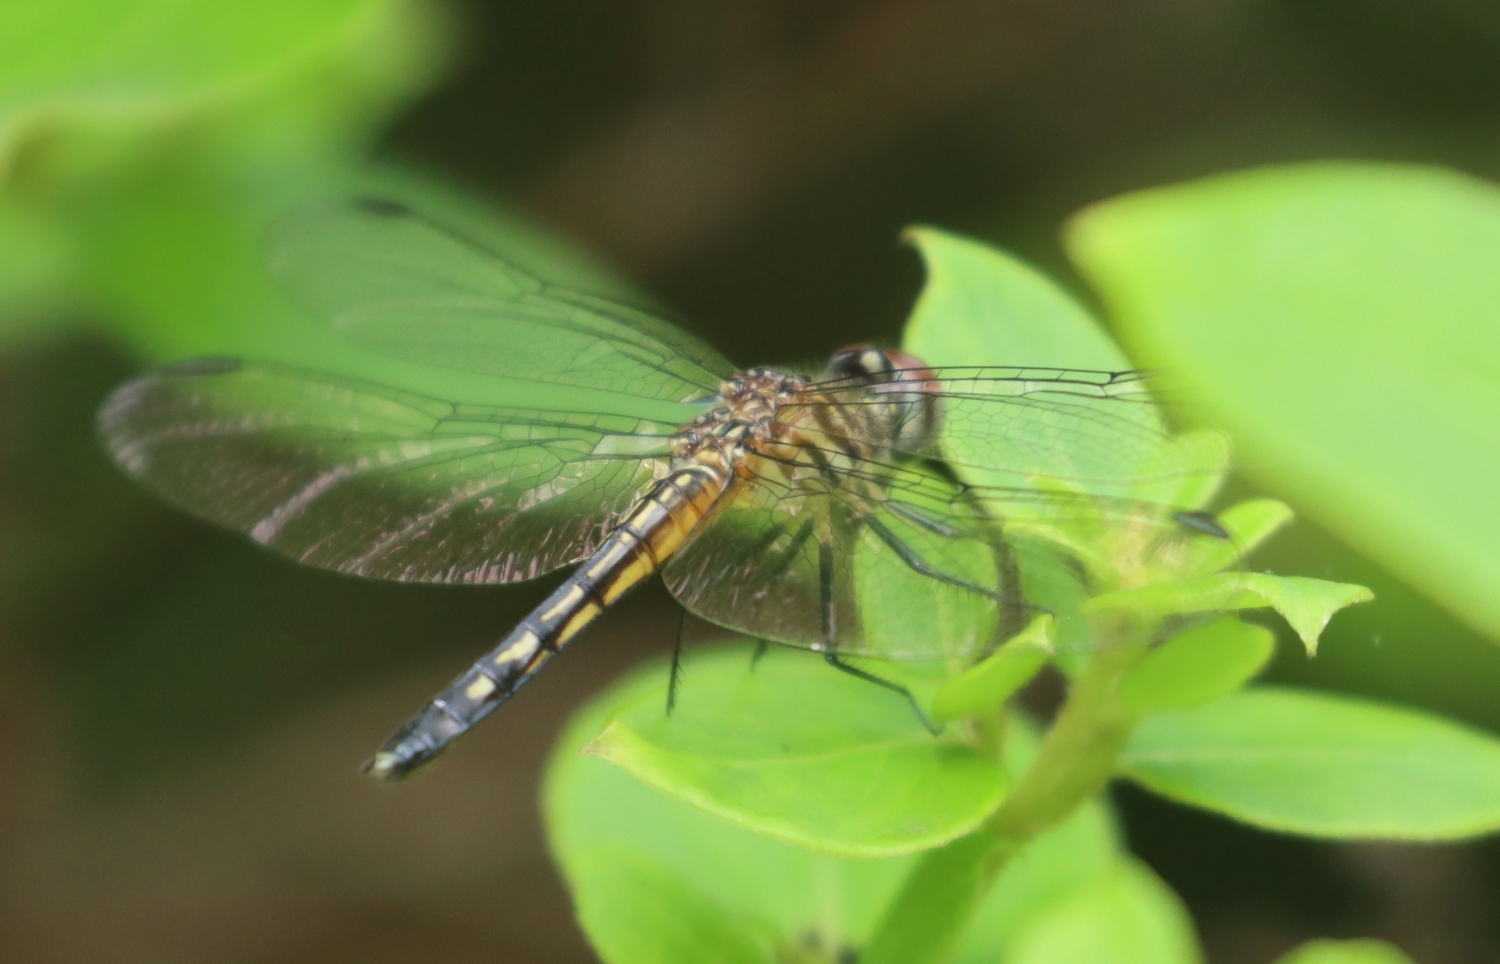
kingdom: Animalia
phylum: Arthropoda
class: Insecta
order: Odonata
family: Libellulidae
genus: Pachydiplax
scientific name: Pachydiplax longipennis
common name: Blue dasher
